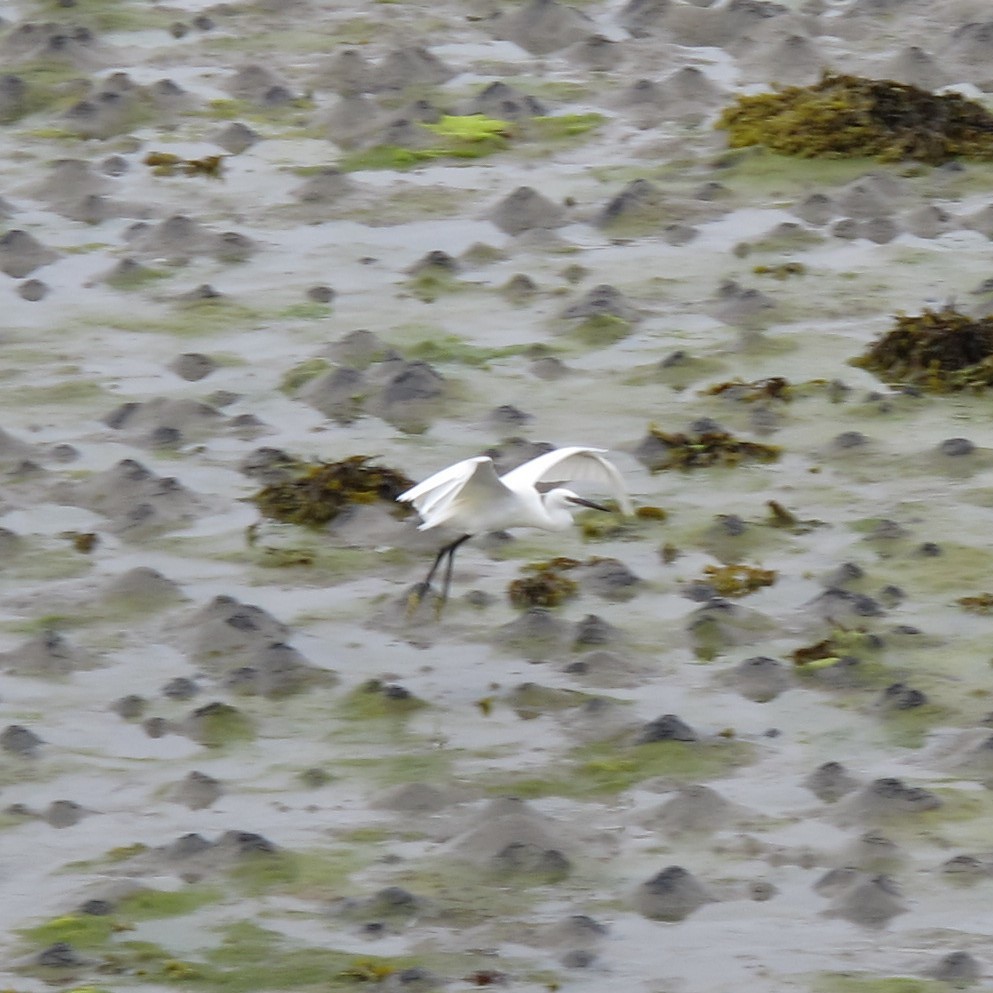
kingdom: Animalia
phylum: Chordata
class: Aves
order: Pelecaniformes
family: Ardeidae
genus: Egretta
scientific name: Egretta garzetta
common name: Little egret
